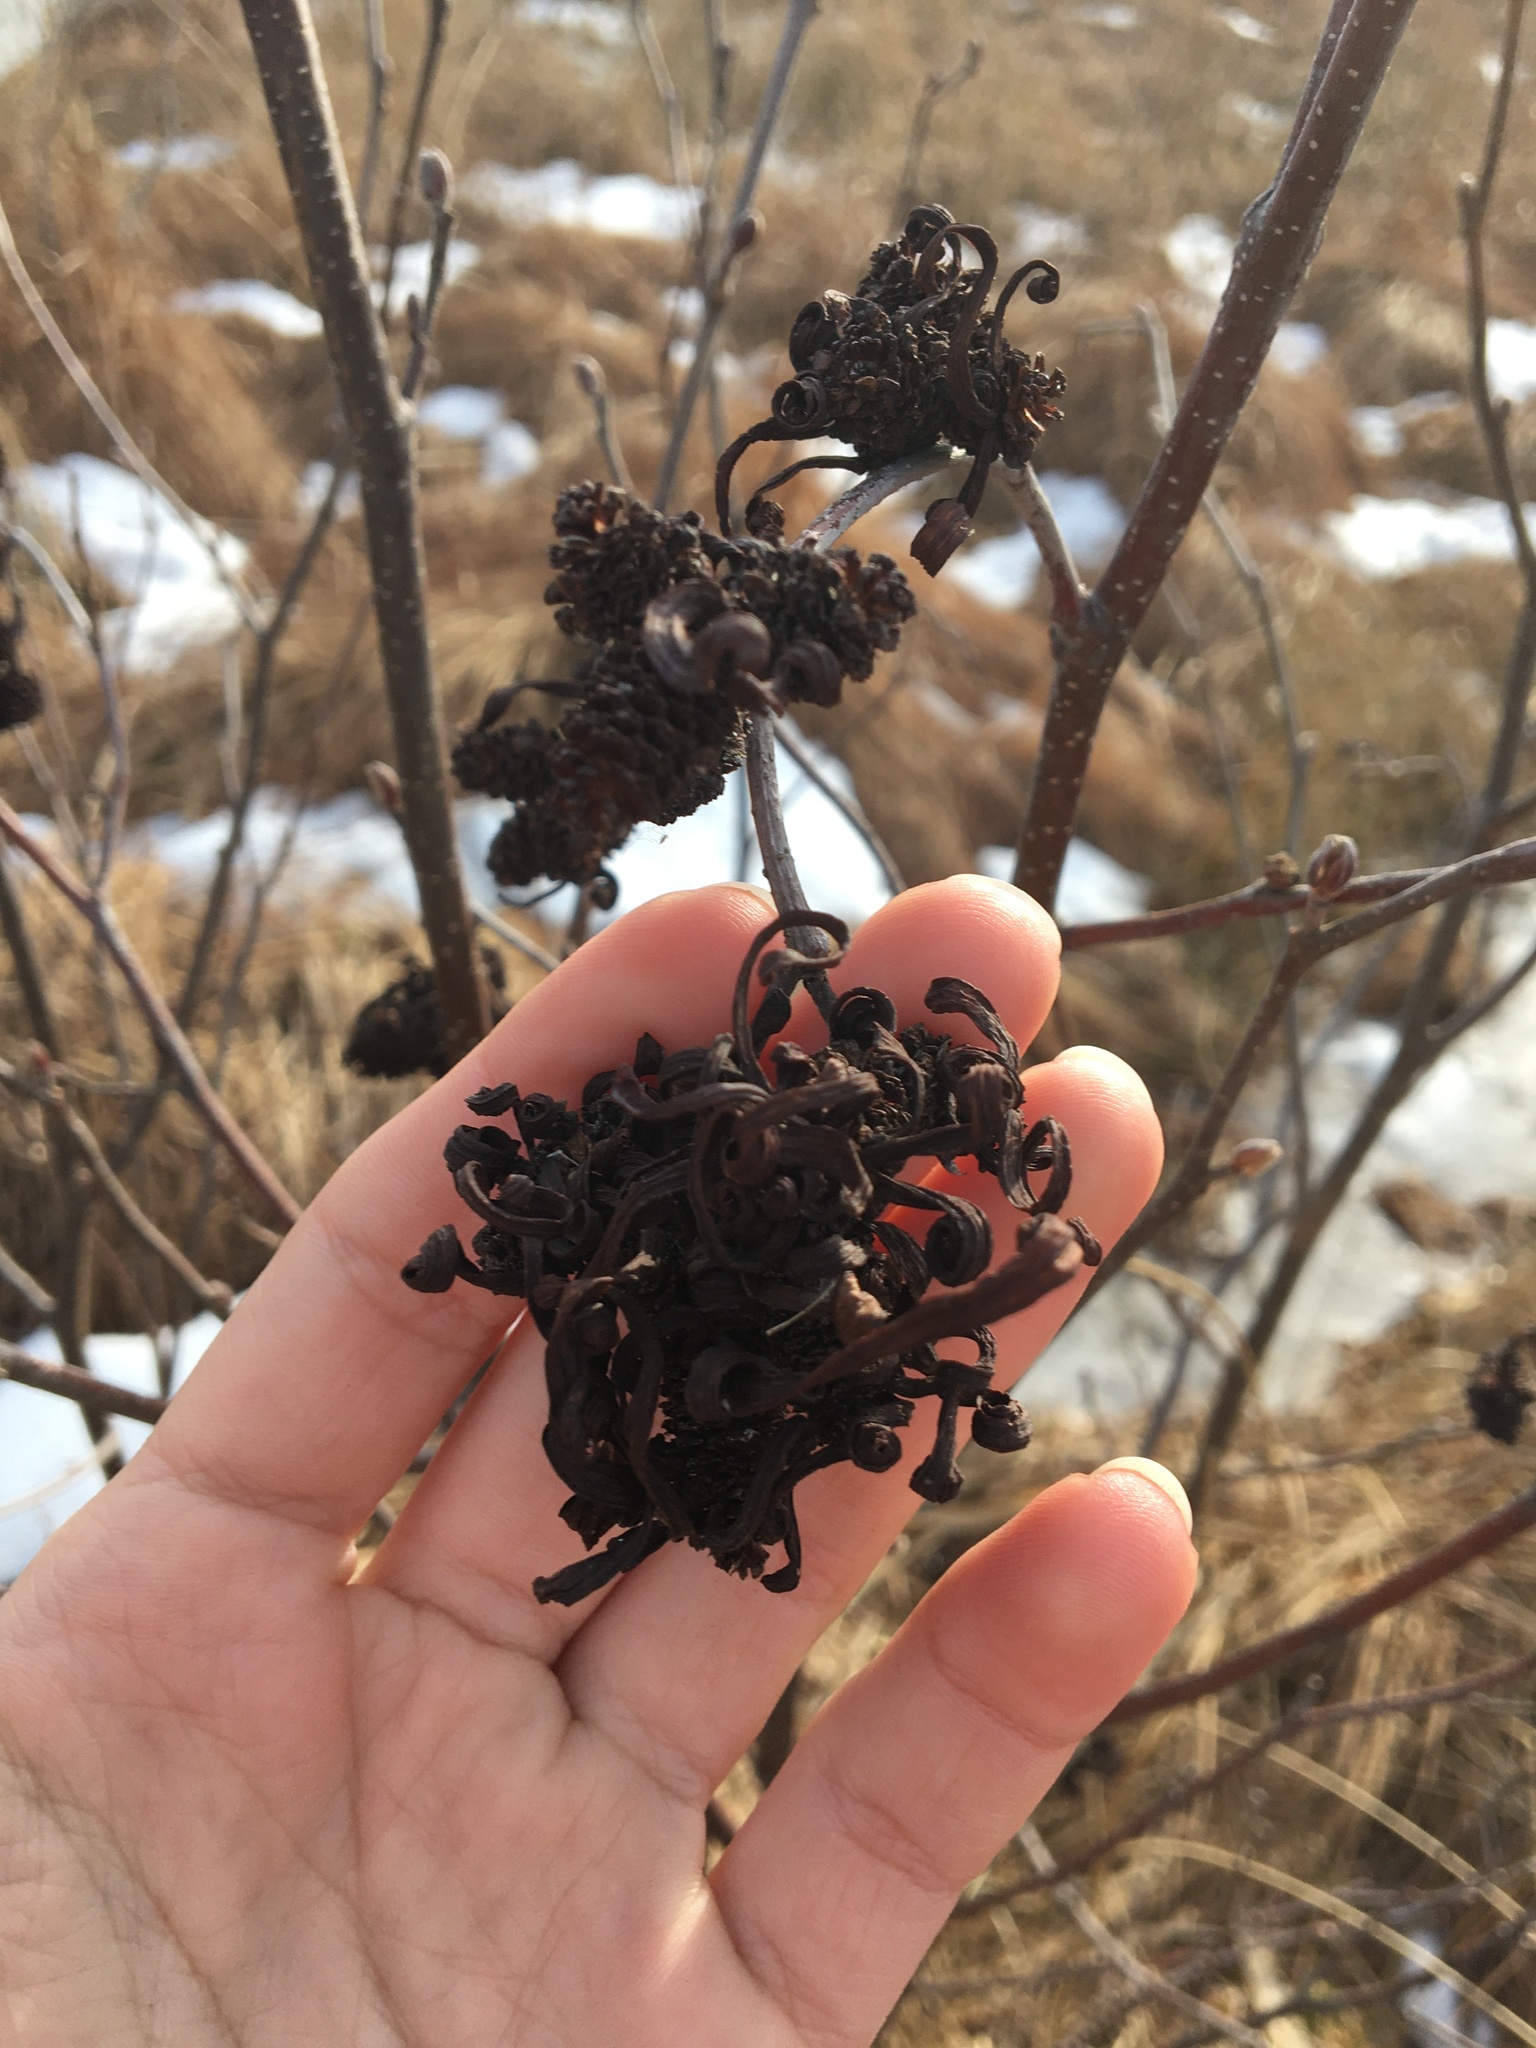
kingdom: Fungi
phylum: Ascomycota
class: Taphrinomycetes
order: Taphrinales
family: Taphrinaceae
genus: Taphrina
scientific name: Taphrina robinsoniana
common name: Eastern american alder tongue gall fungus
